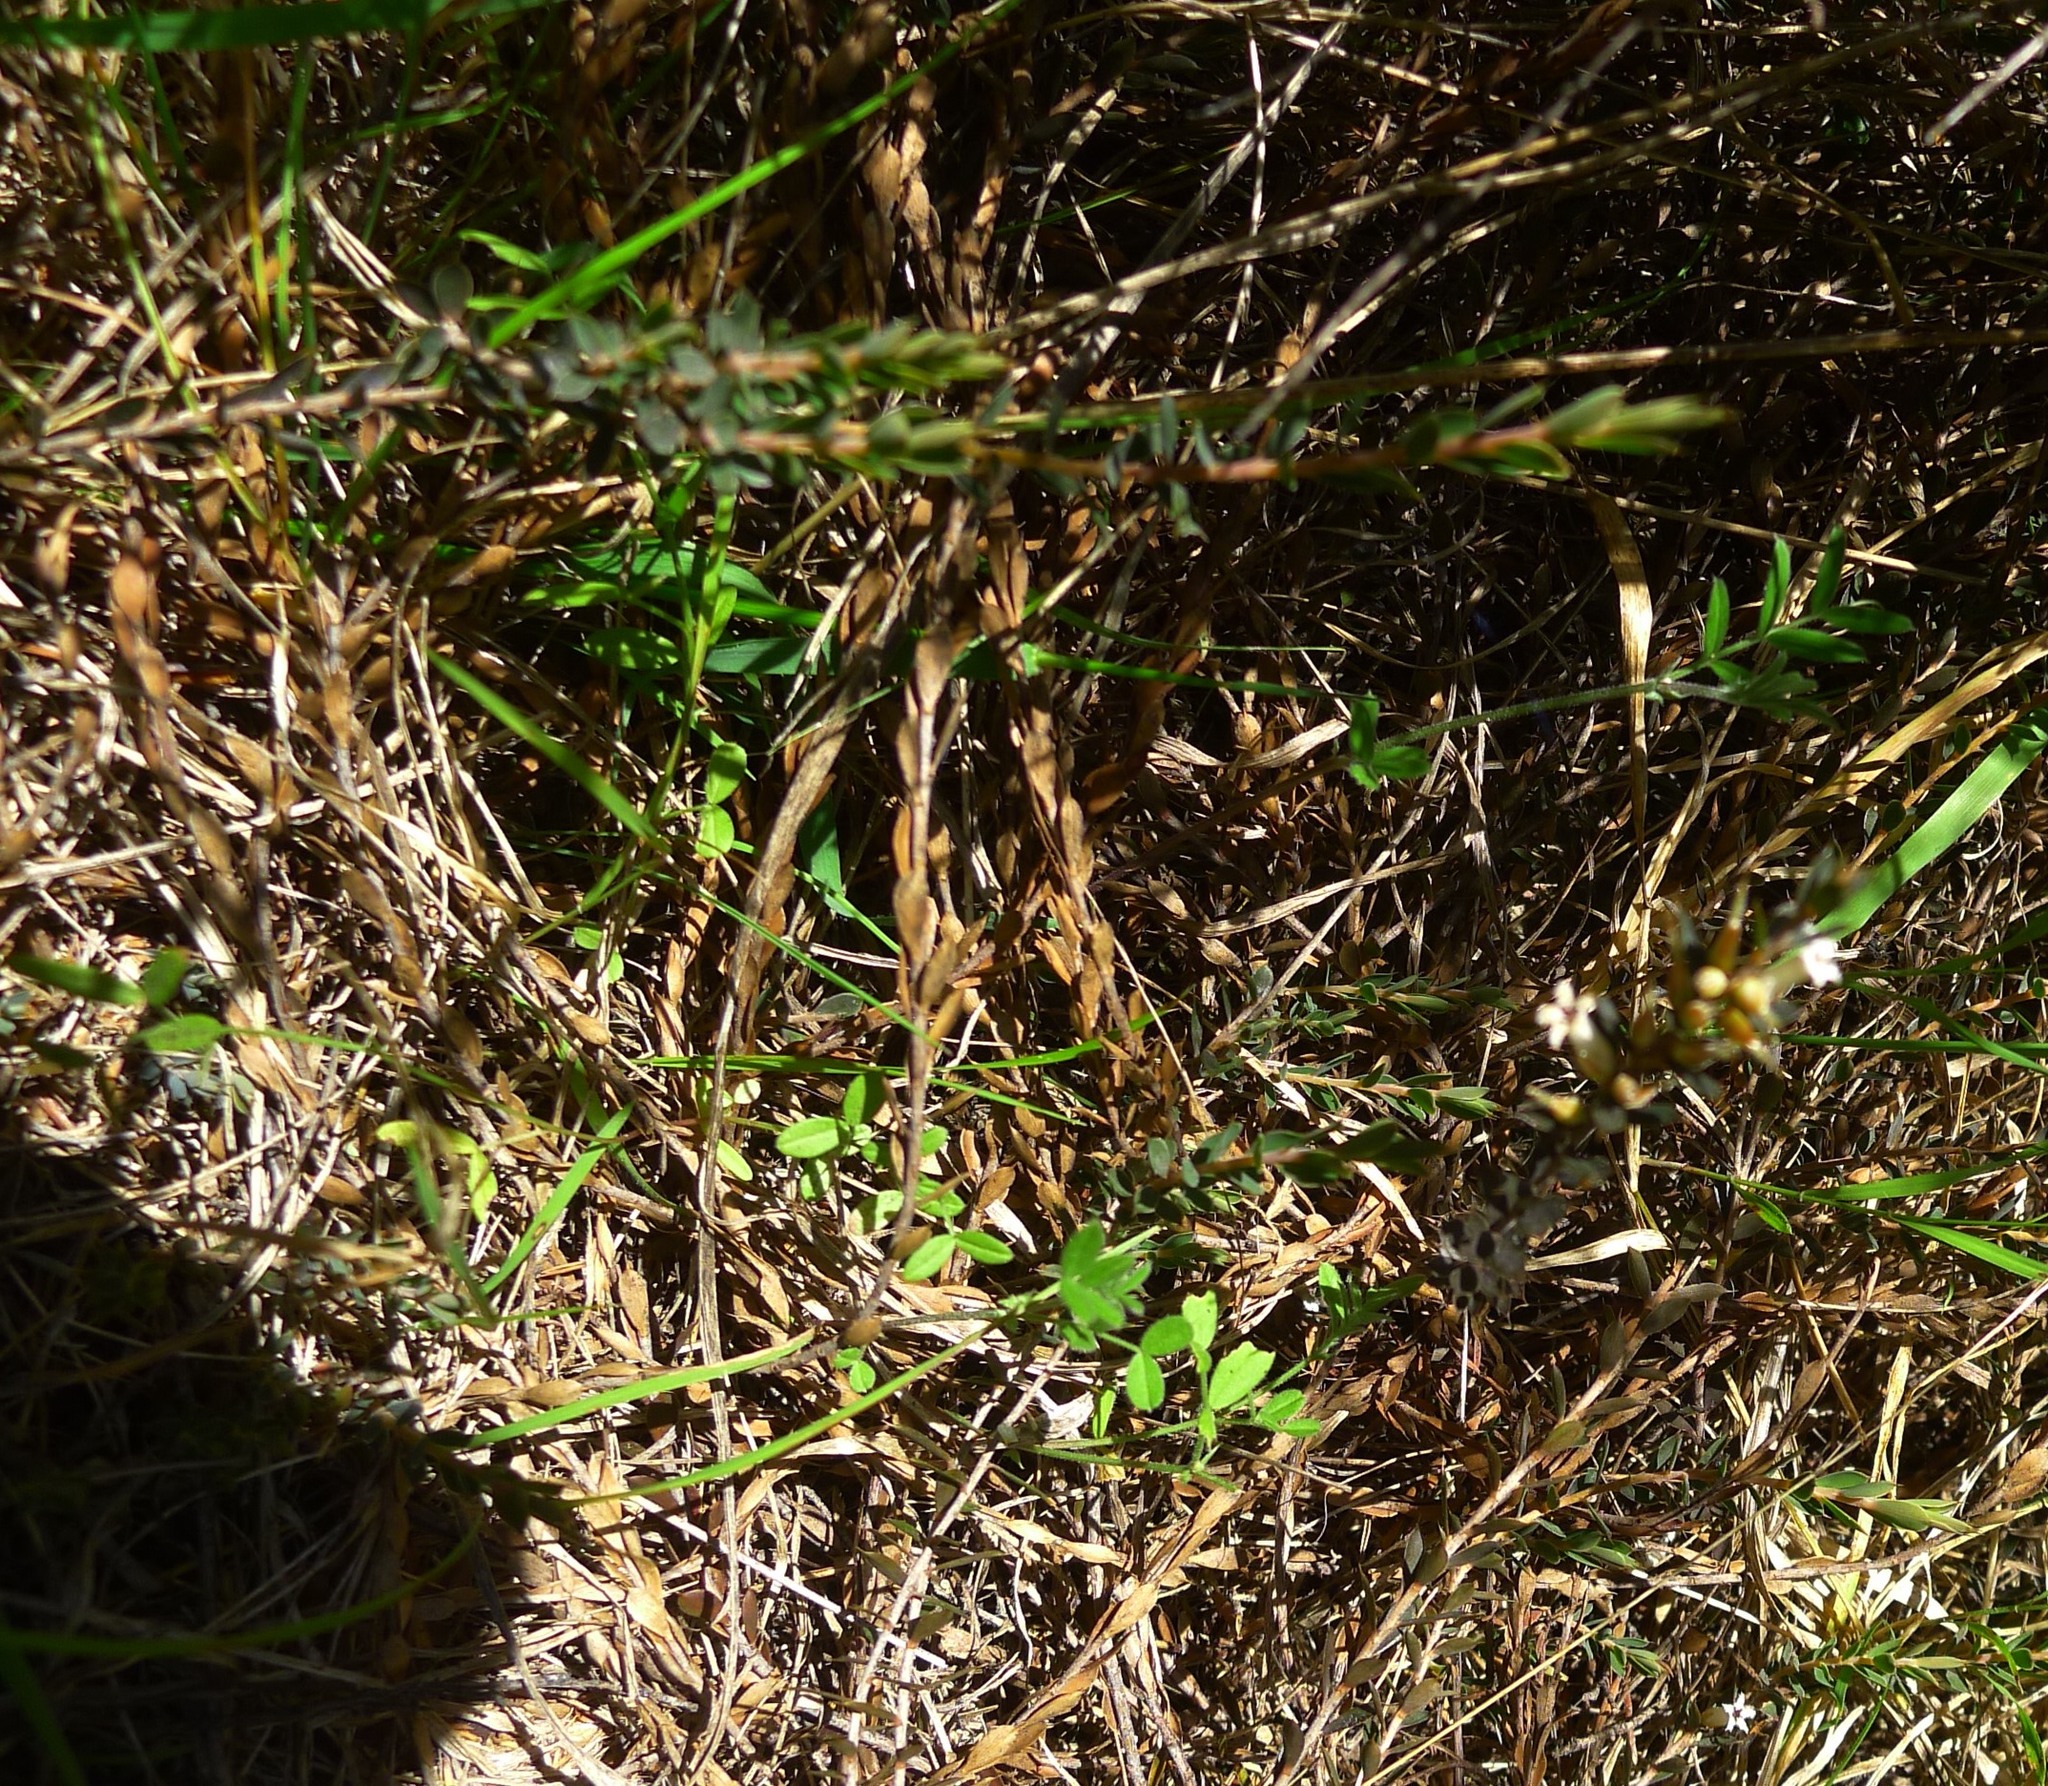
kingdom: Plantae
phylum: Tracheophyta
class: Magnoliopsida
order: Ericales
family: Ericaceae
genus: Styphelia
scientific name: Styphelia nesophila
